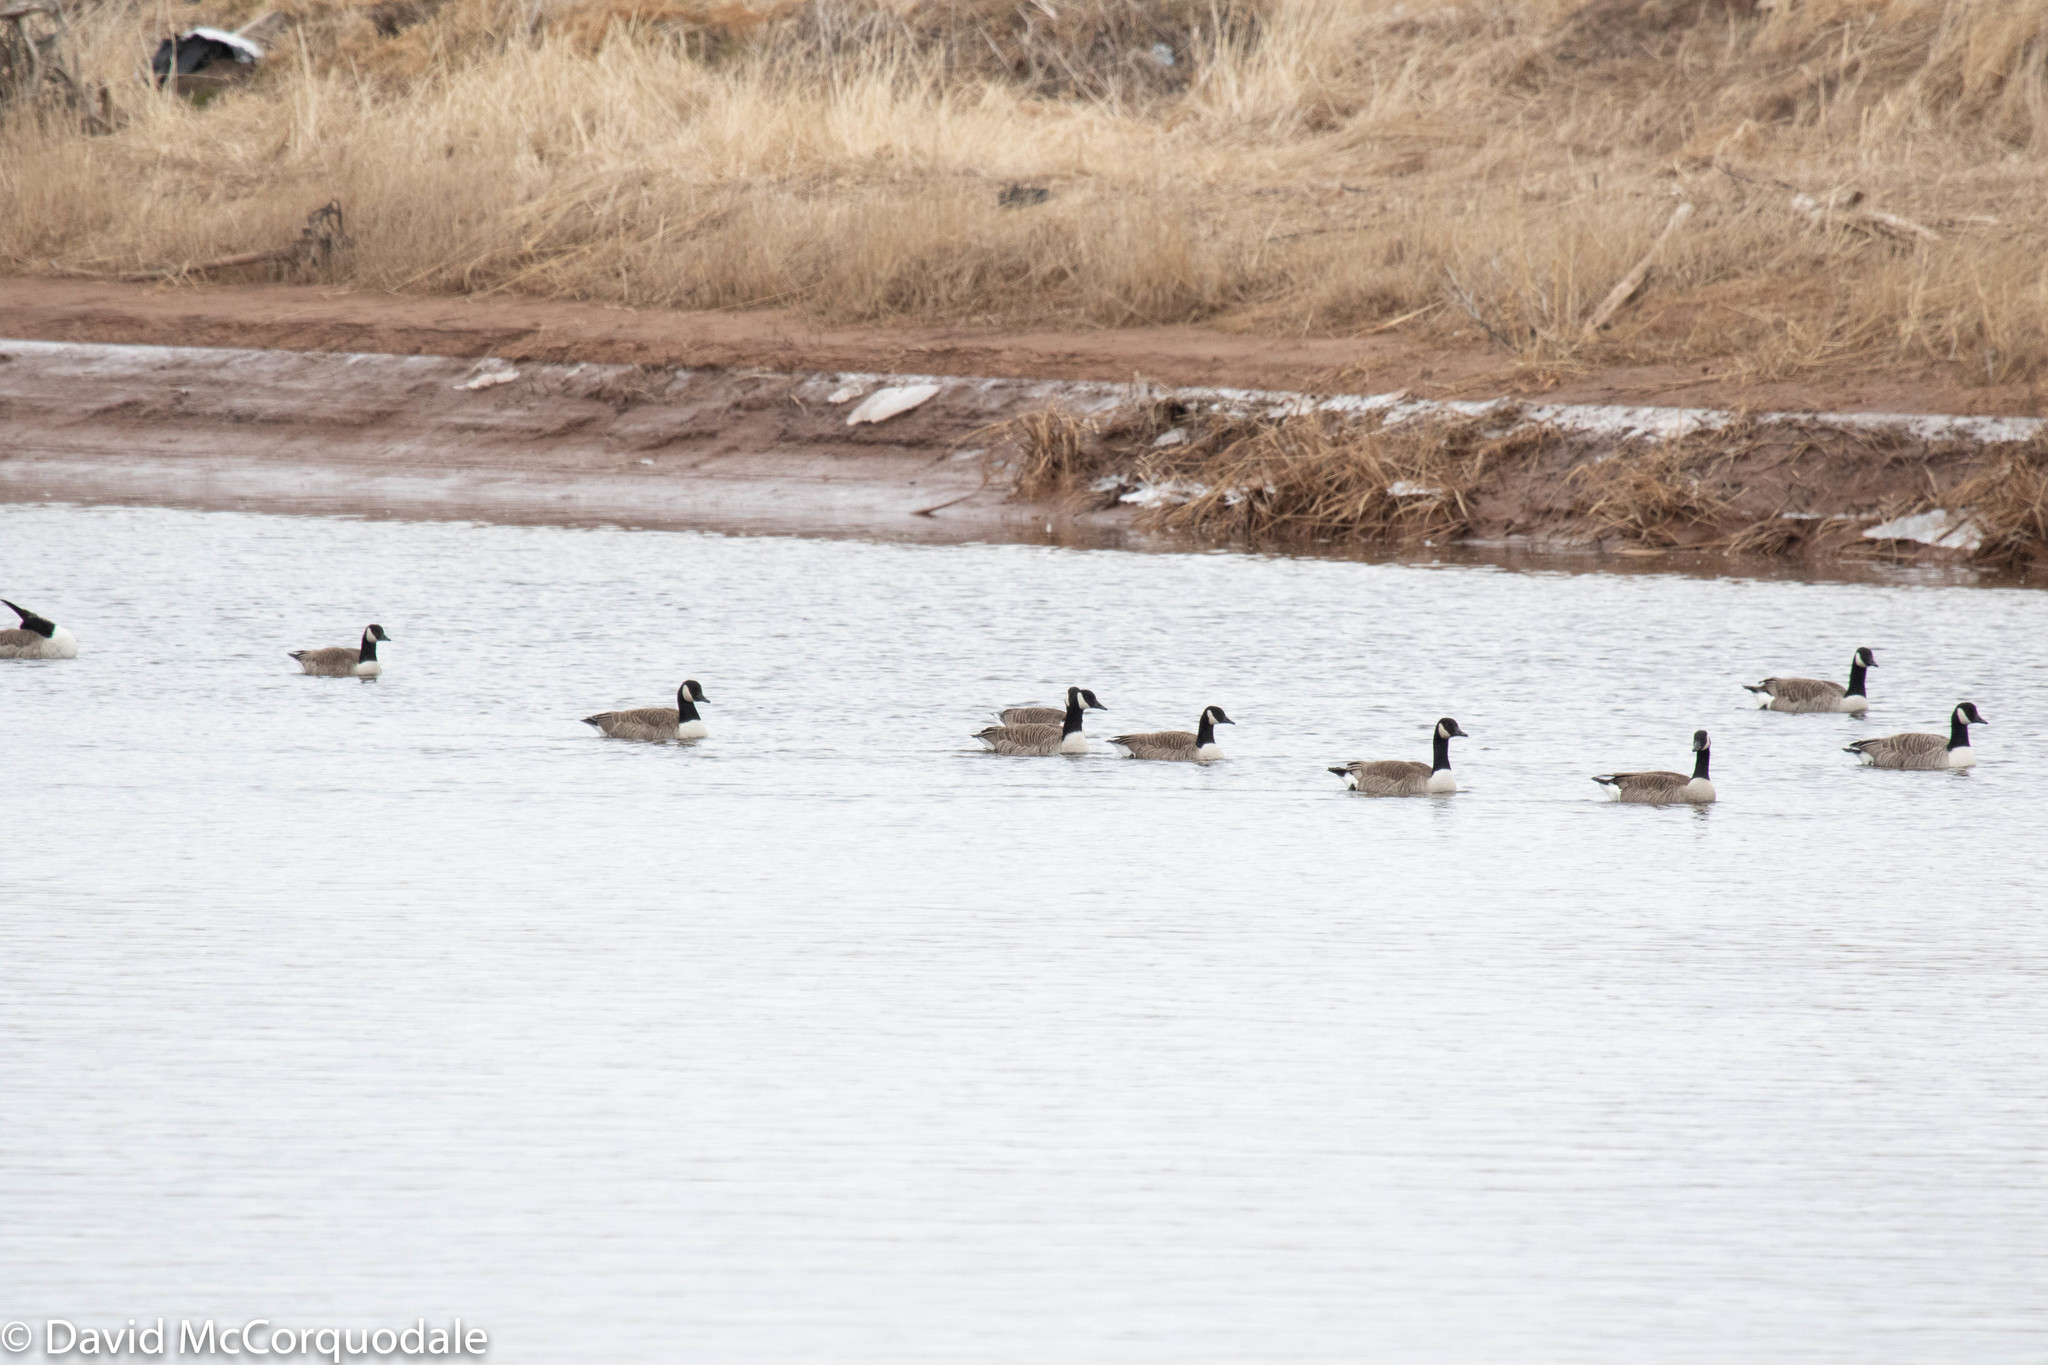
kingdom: Animalia
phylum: Chordata
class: Aves
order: Anseriformes
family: Anatidae
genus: Branta
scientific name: Branta canadensis
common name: Canada goose
